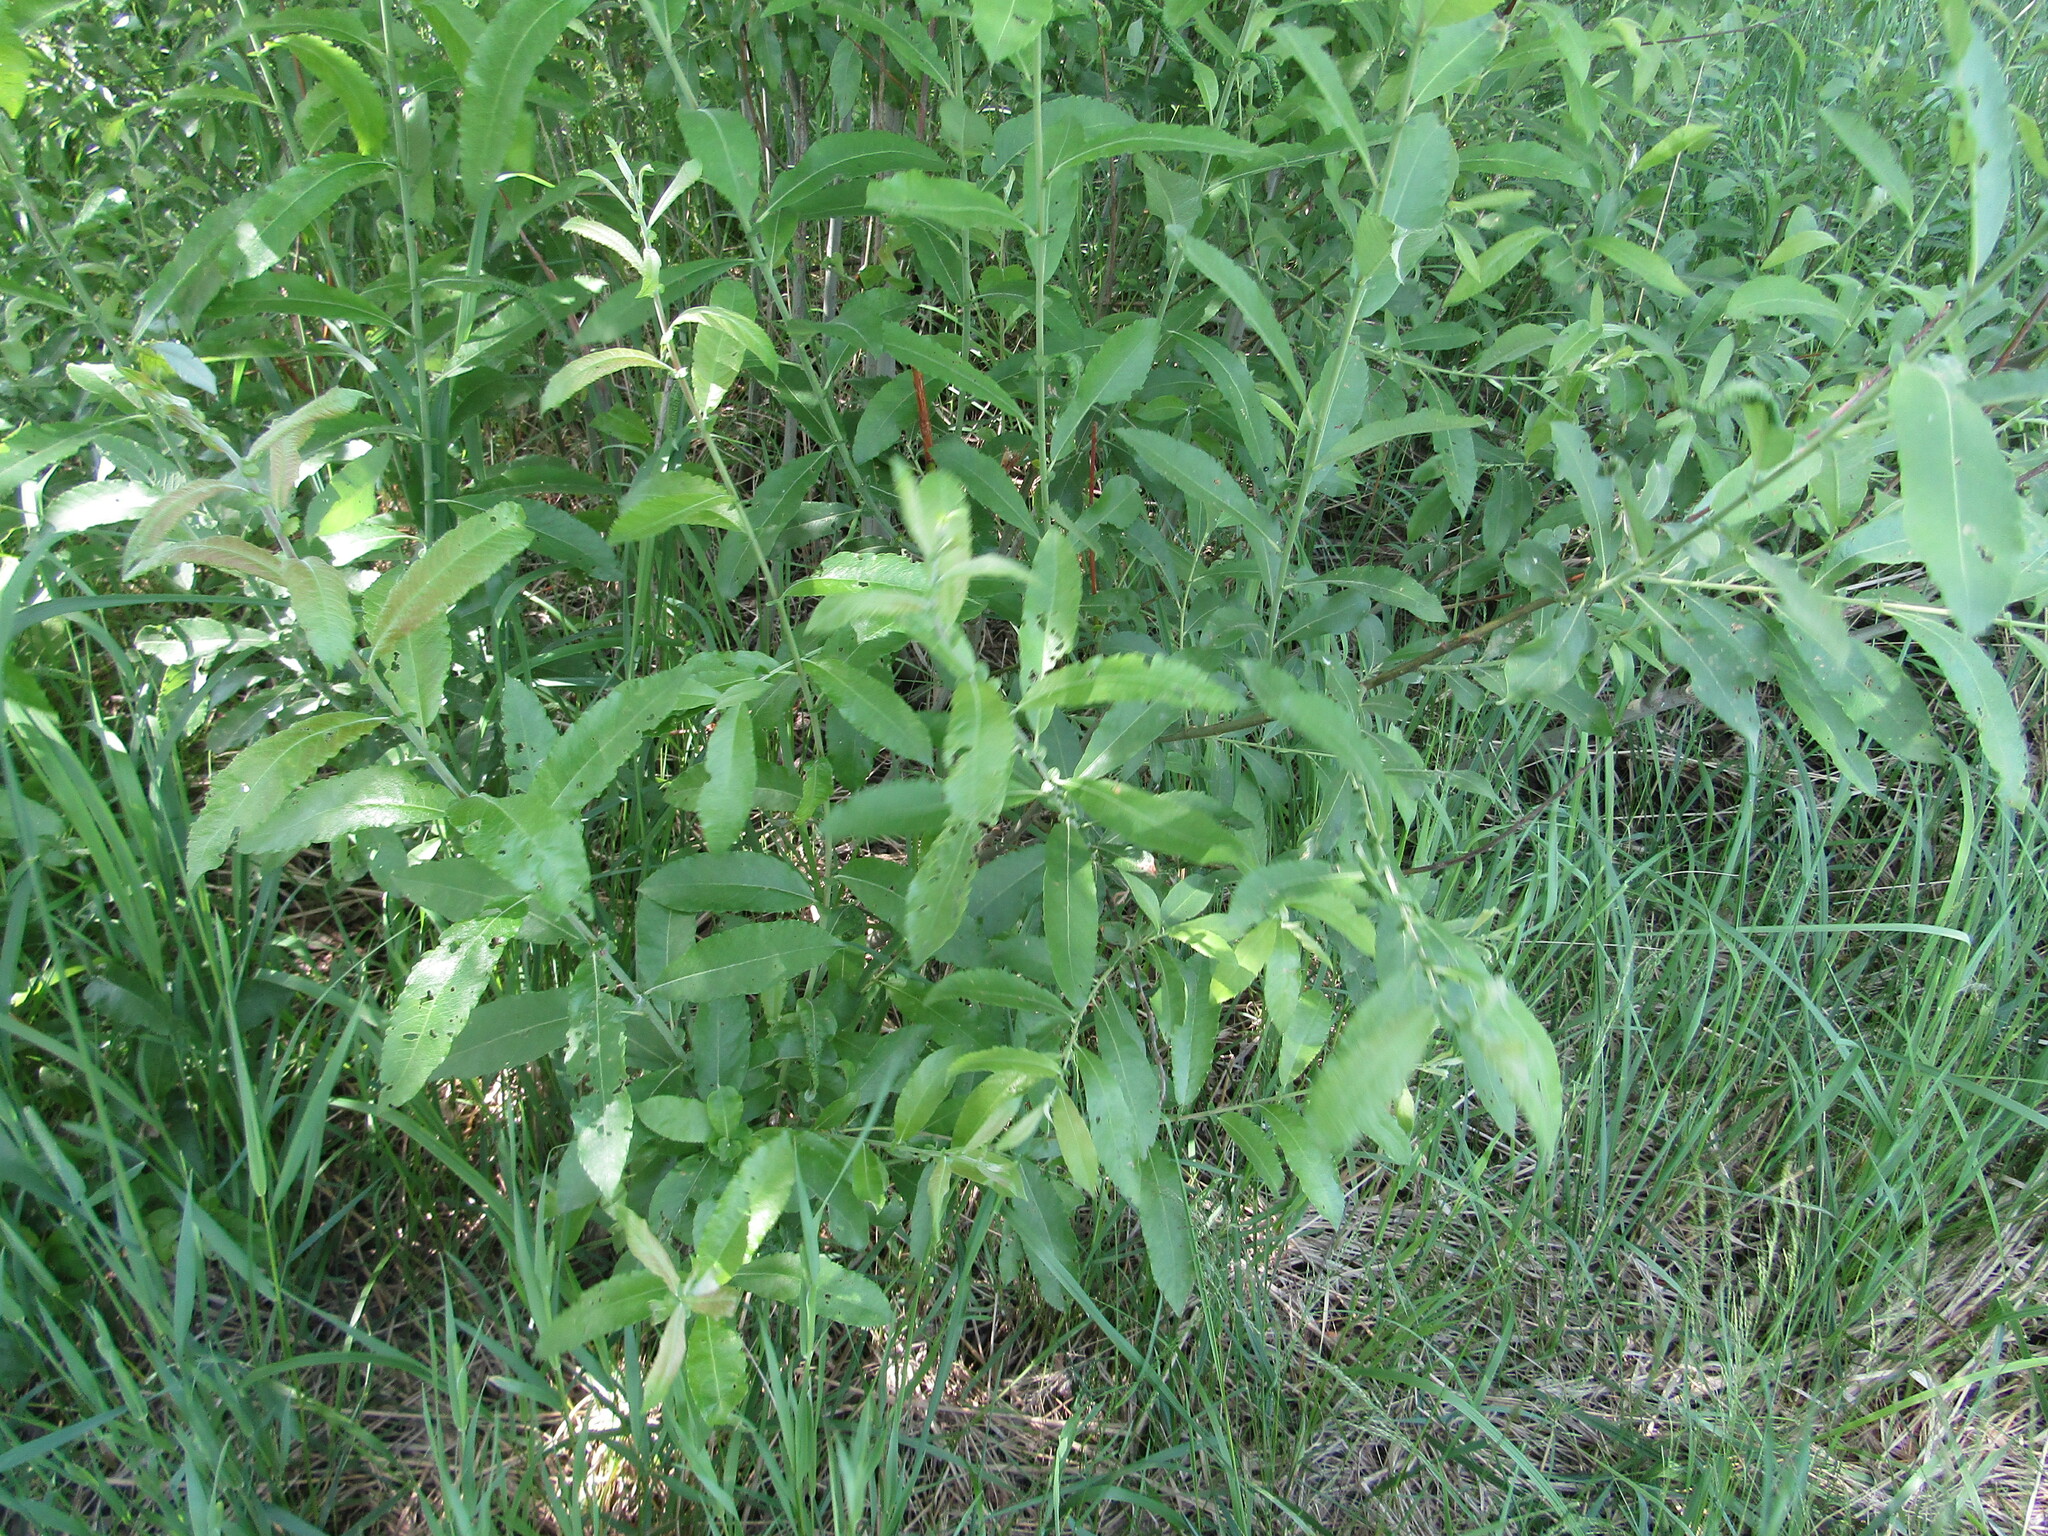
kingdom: Plantae
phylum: Tracheophyta
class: Magnoliopsida
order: Malpighiales
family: Salicaceae
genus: Salix
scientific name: Salix cinerea
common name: Common sallow
